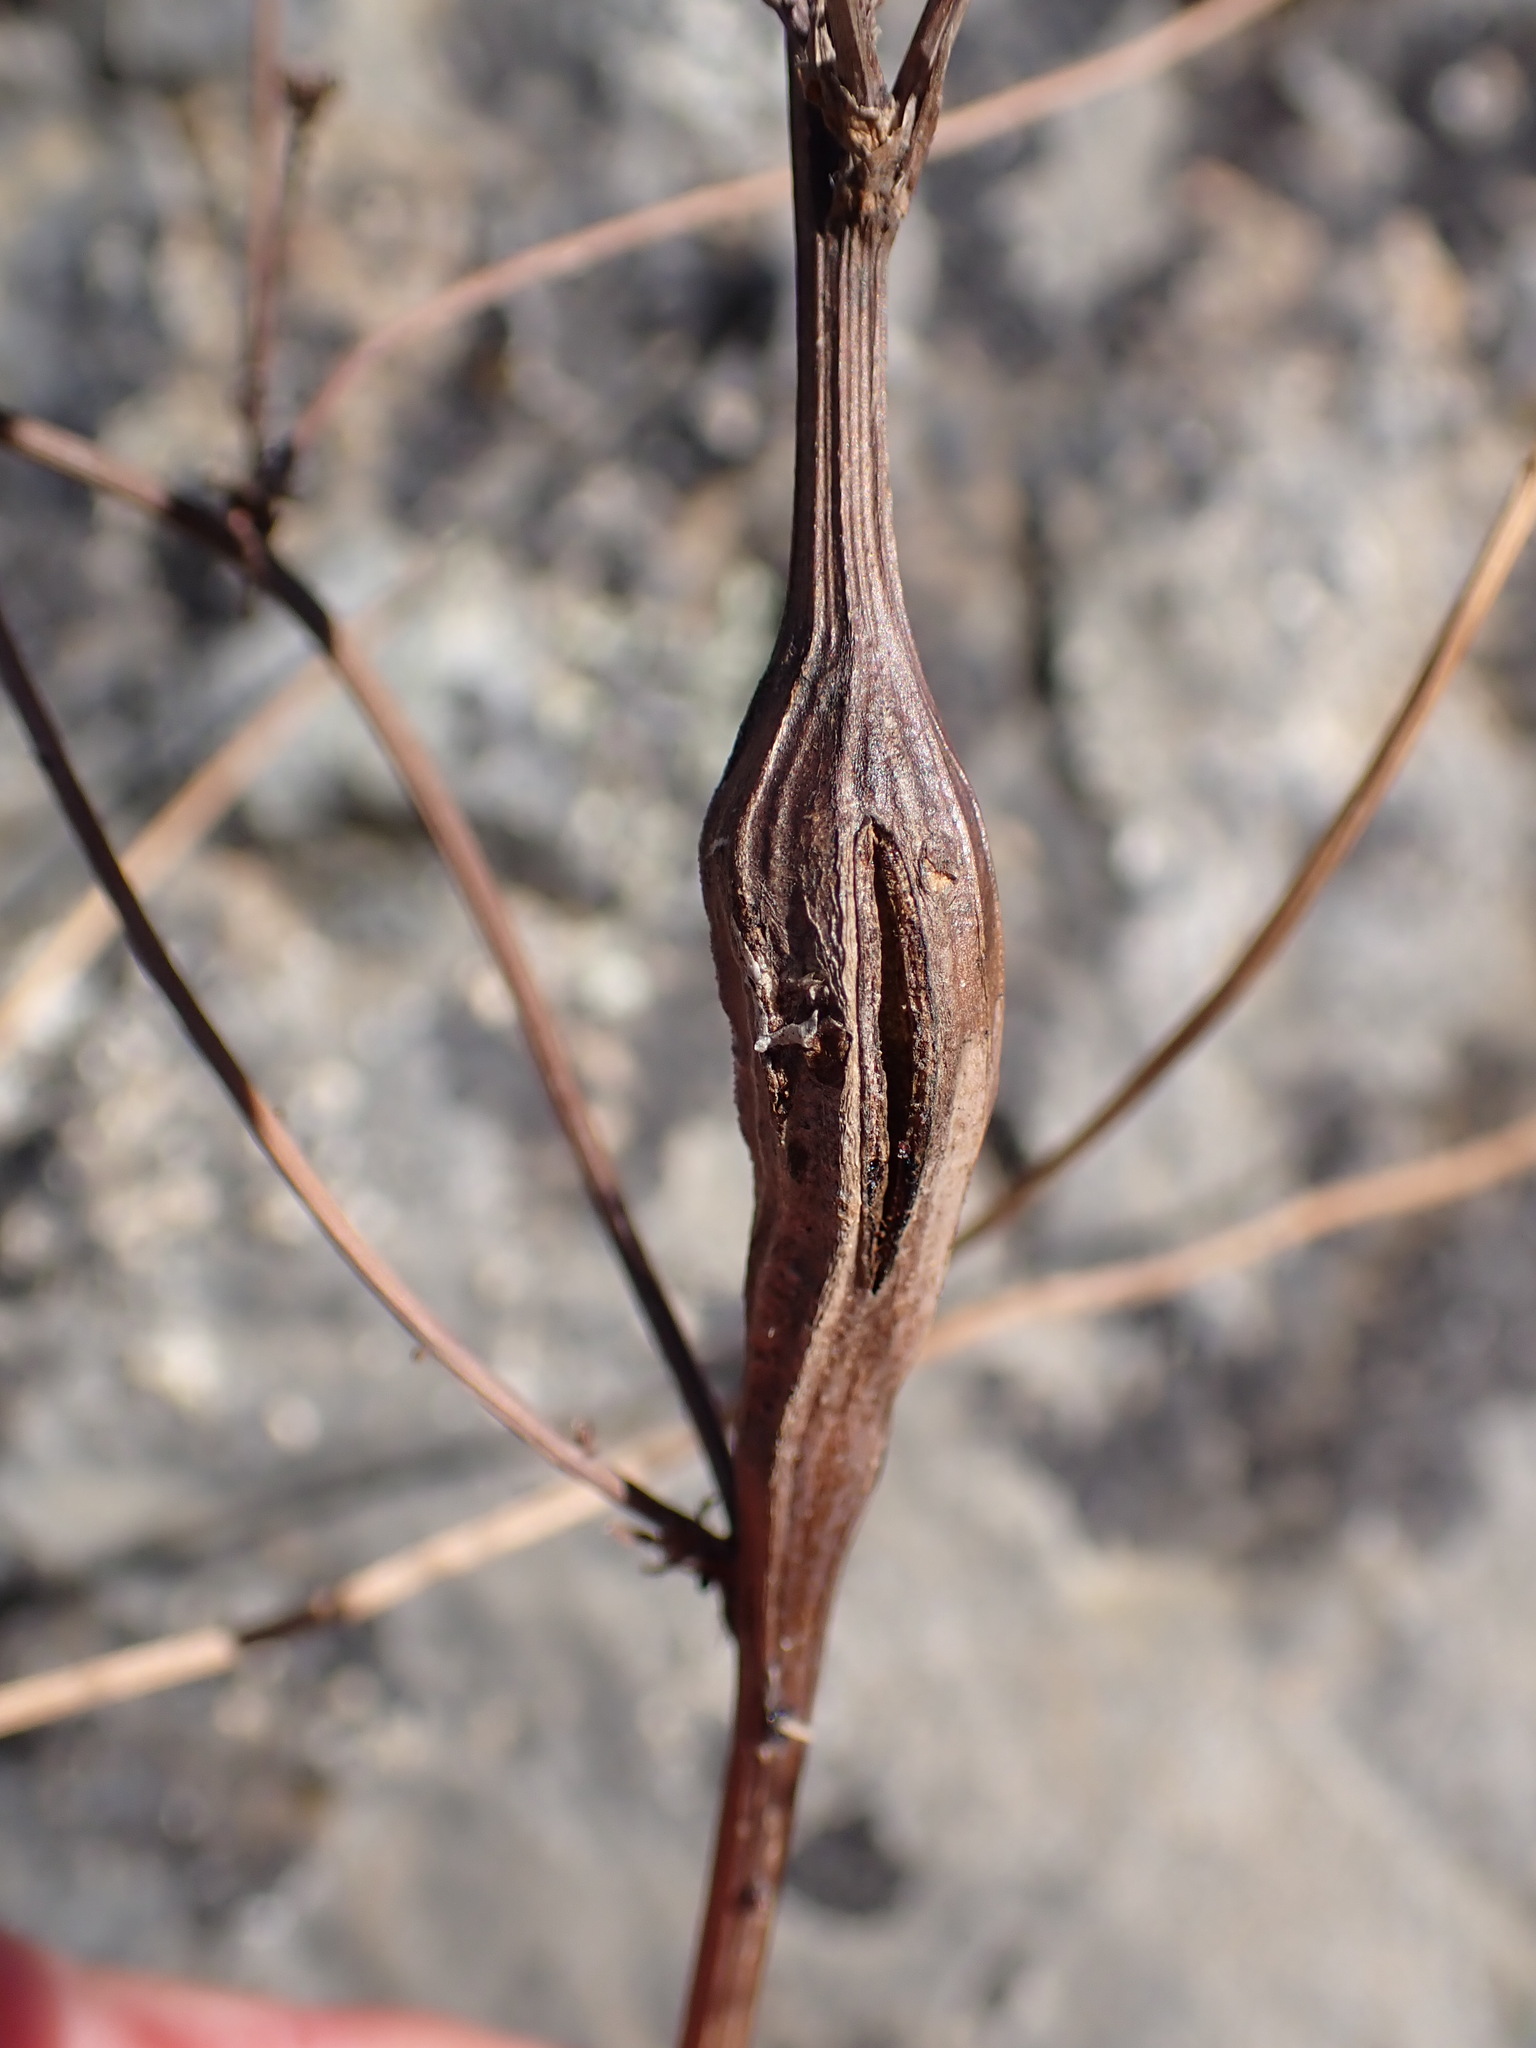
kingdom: Animalia
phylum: Arthropoda
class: Insecta
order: Hymenoptera
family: Cynipidae
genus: Phanacis
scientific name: Phanacis hypochoeridis
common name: Gall wasp
